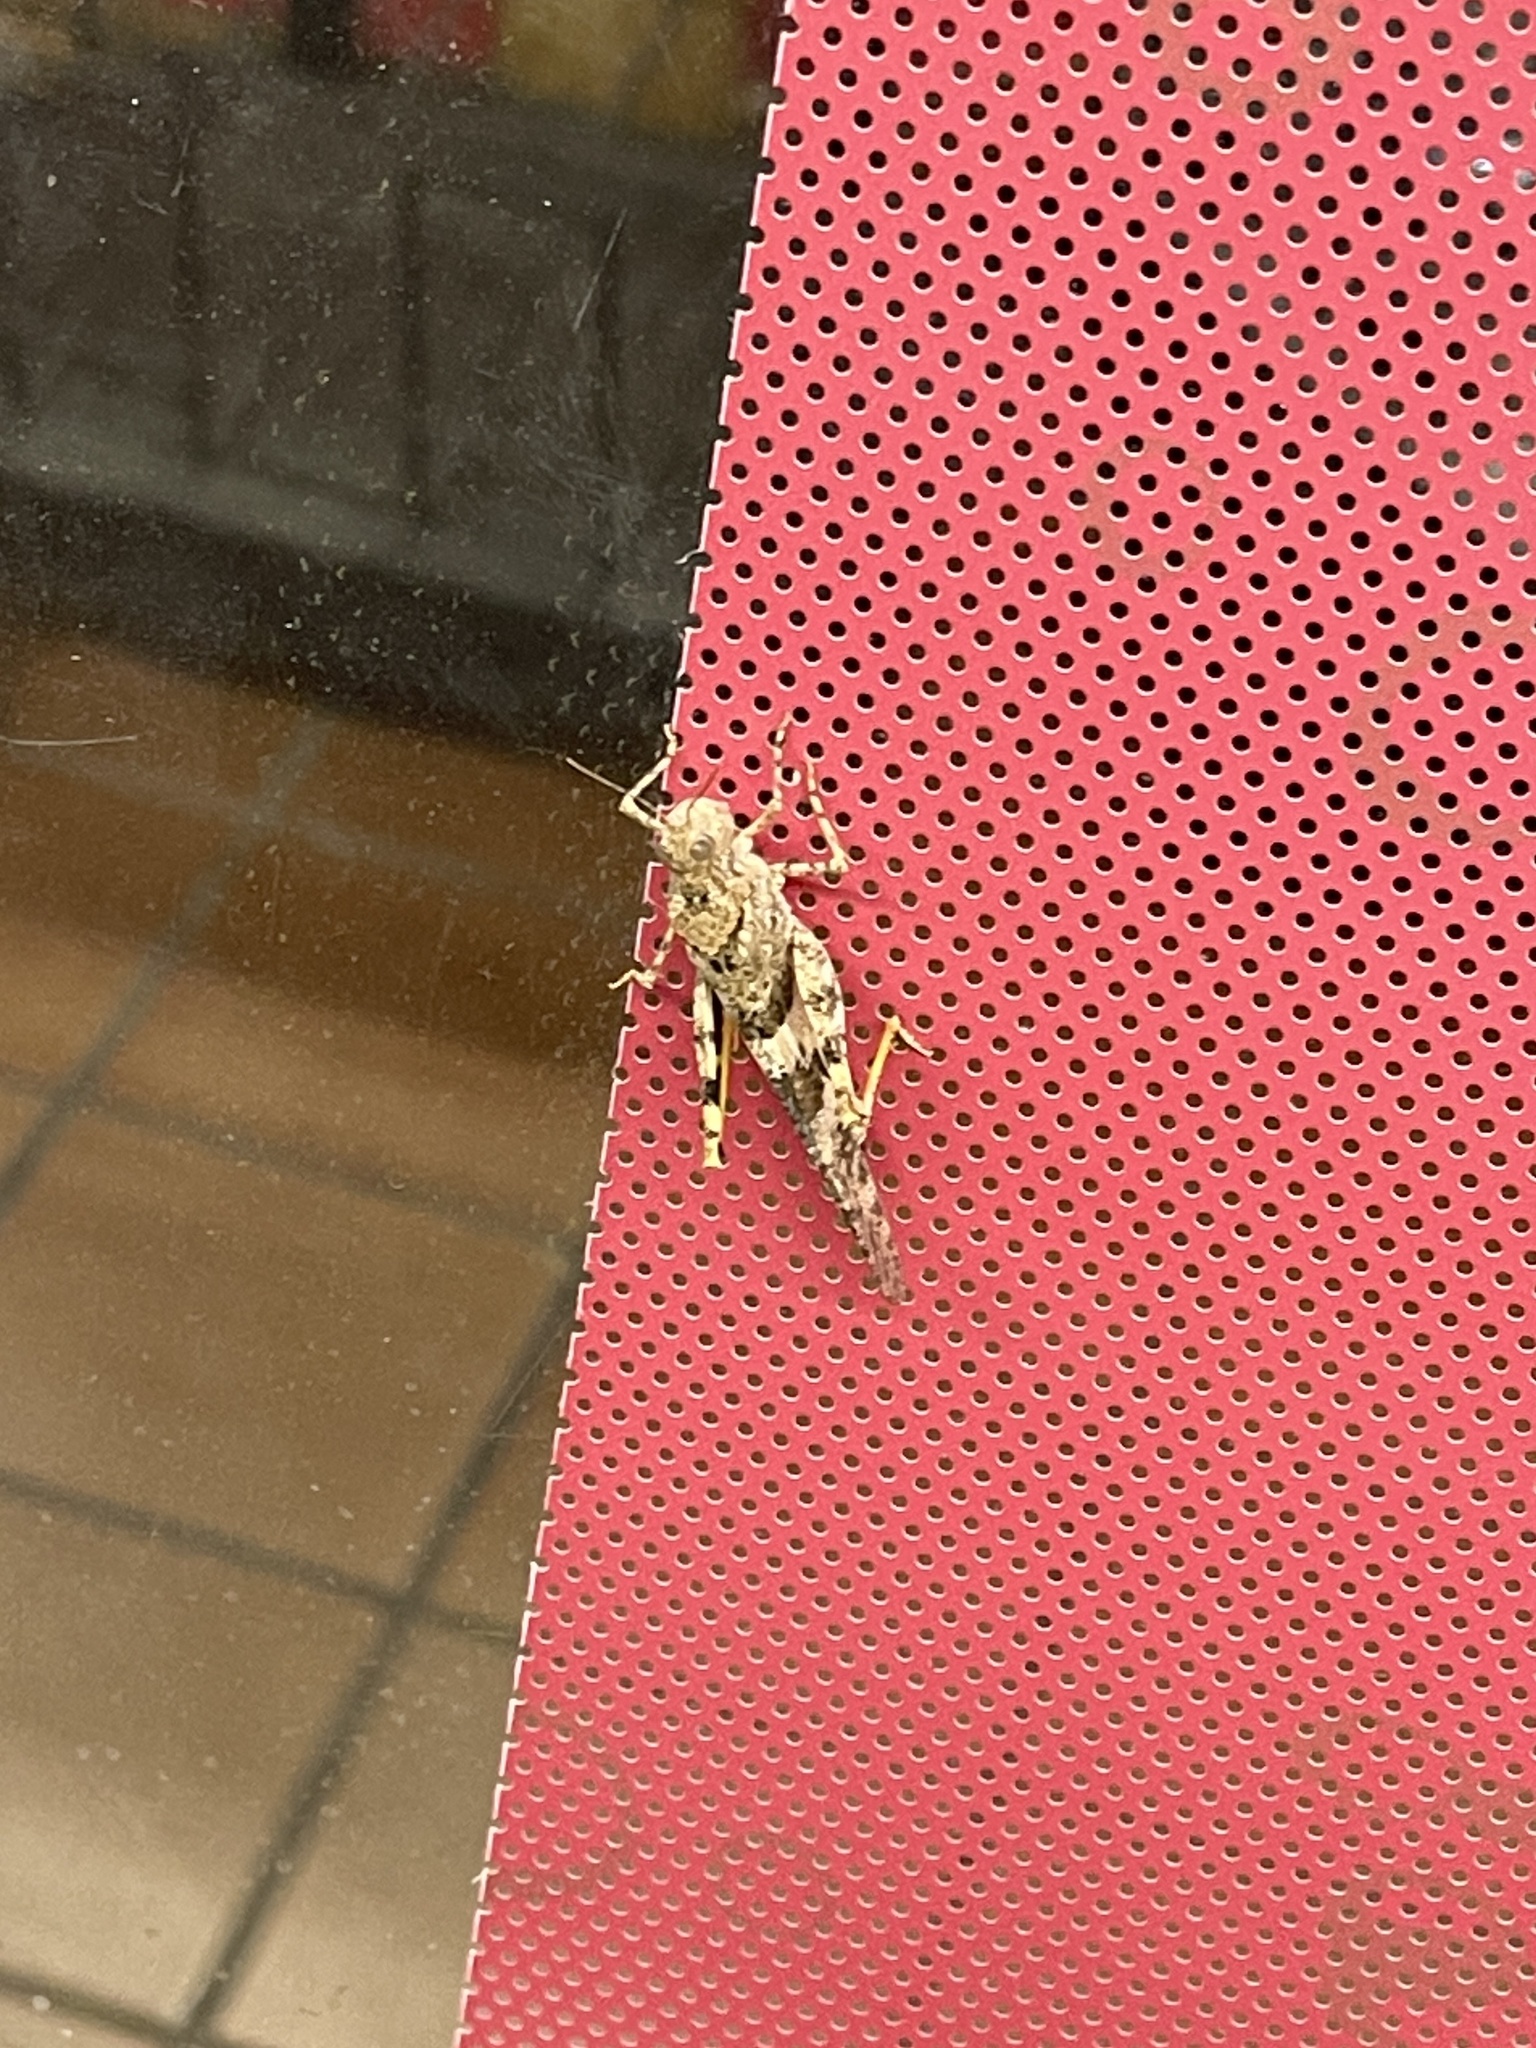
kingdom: Animalia
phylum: Arthropoda
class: Insecta
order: Orthoptera
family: Acrididae
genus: Trimerotropis
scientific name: Trimerotropis pallidipennis
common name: Pallid-winged grasshopper
